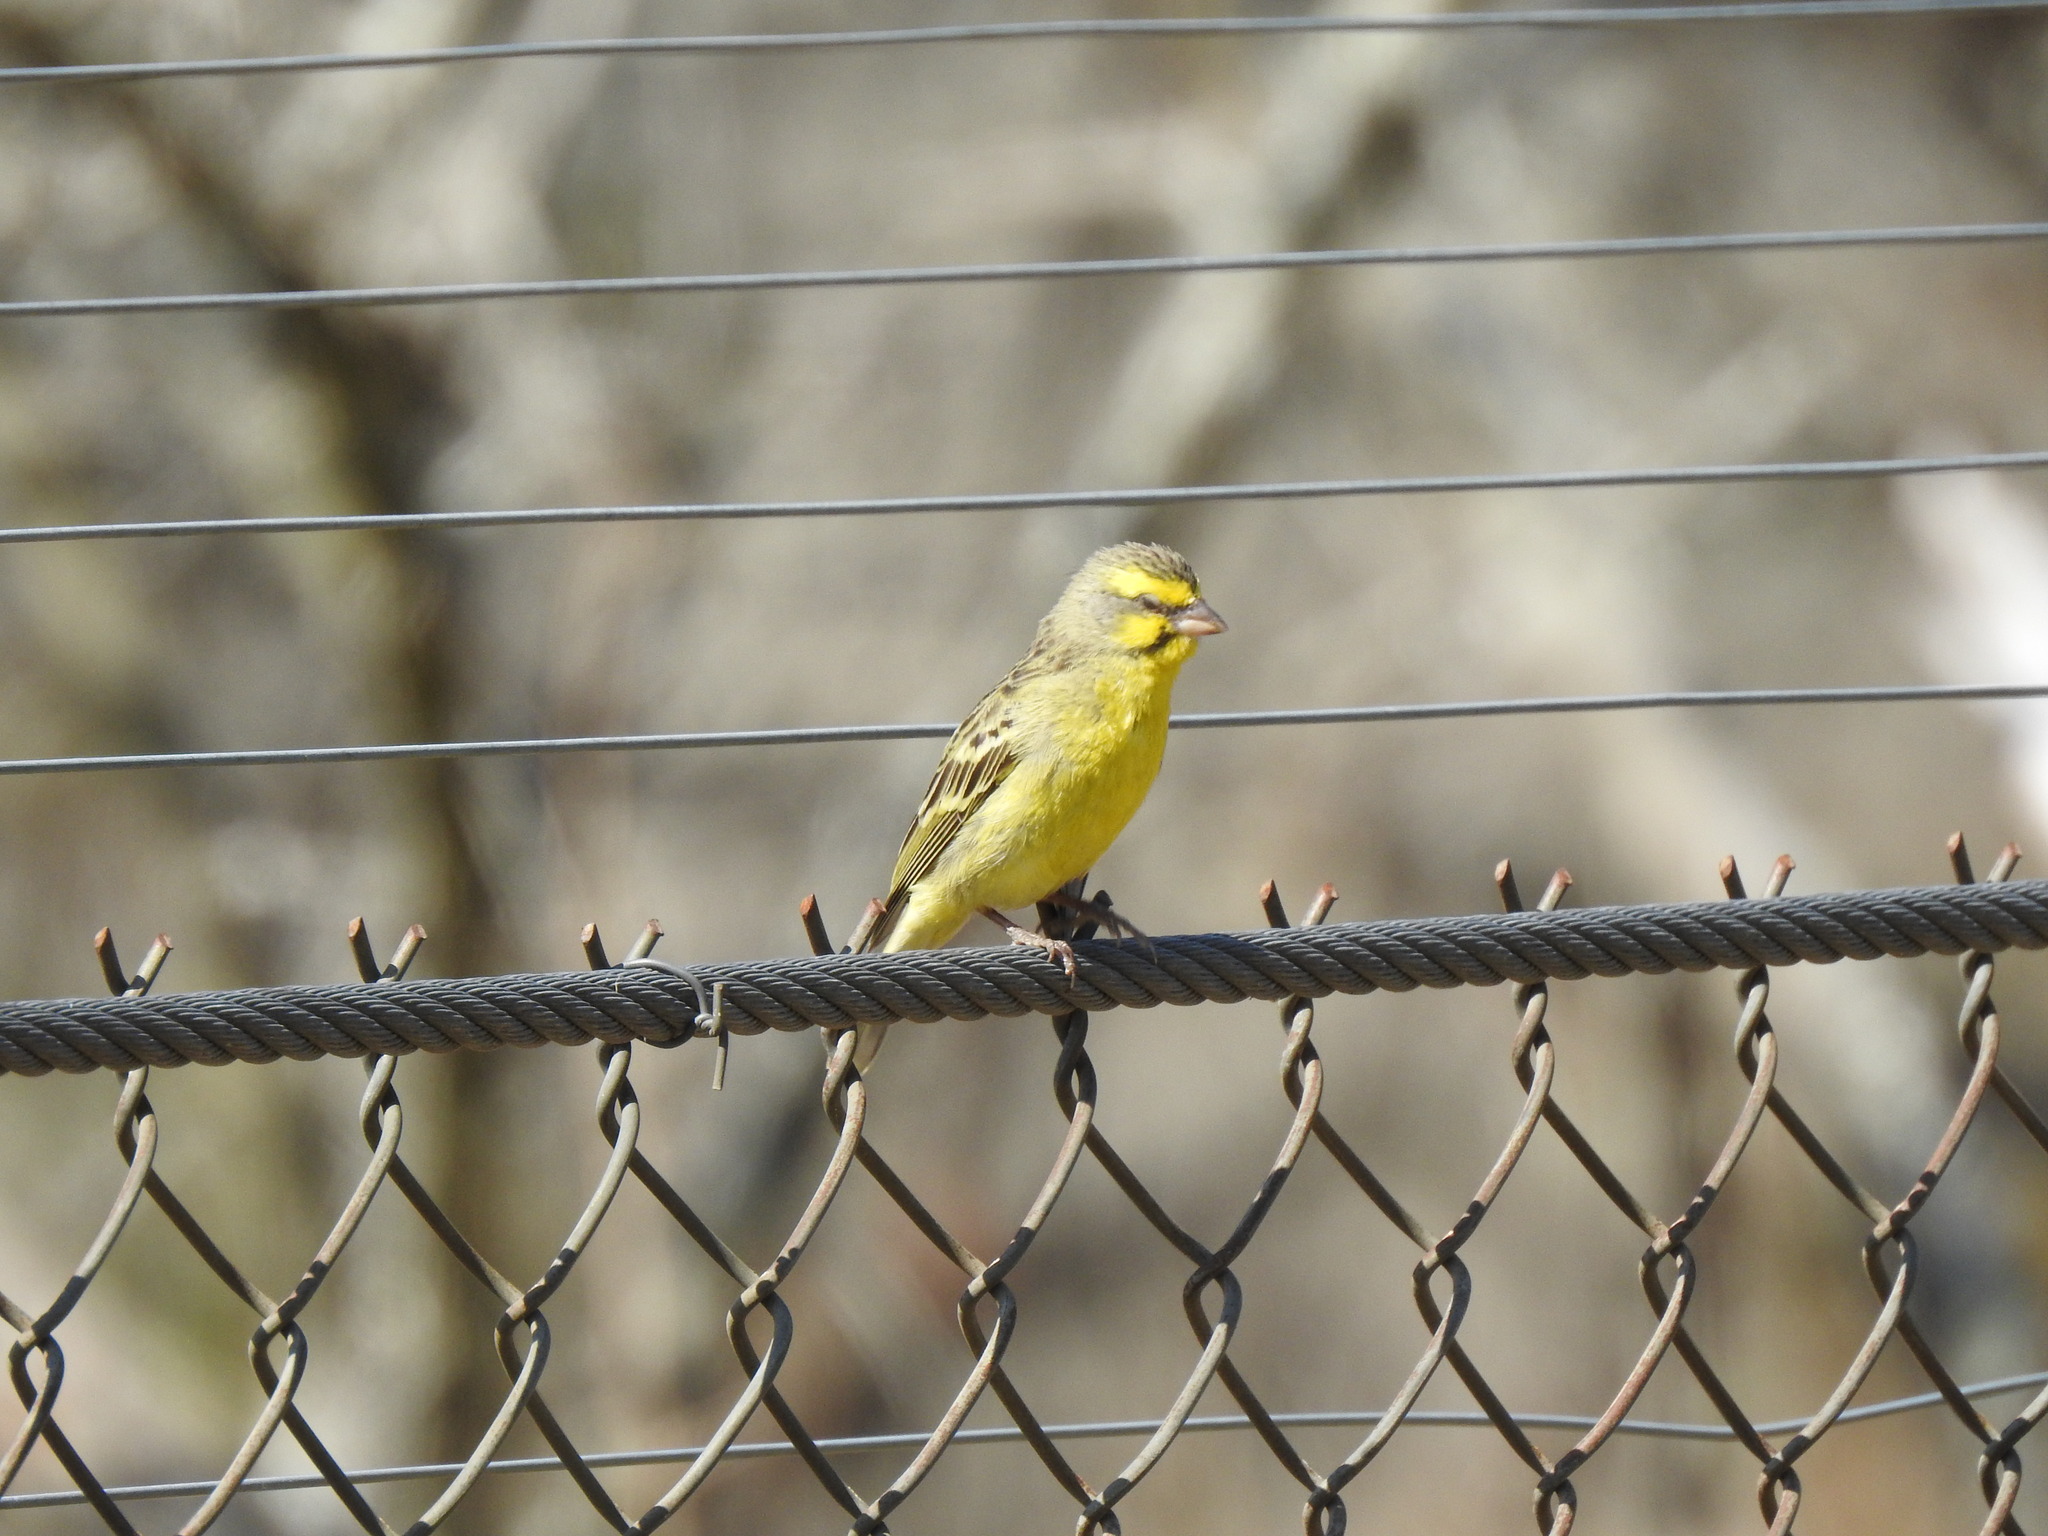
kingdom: Animalia
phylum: Chordata
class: Aves
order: Passeriformes
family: Fringillidae
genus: Crithagra
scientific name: Crithagra mozambica
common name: Yellow-fronted canary
